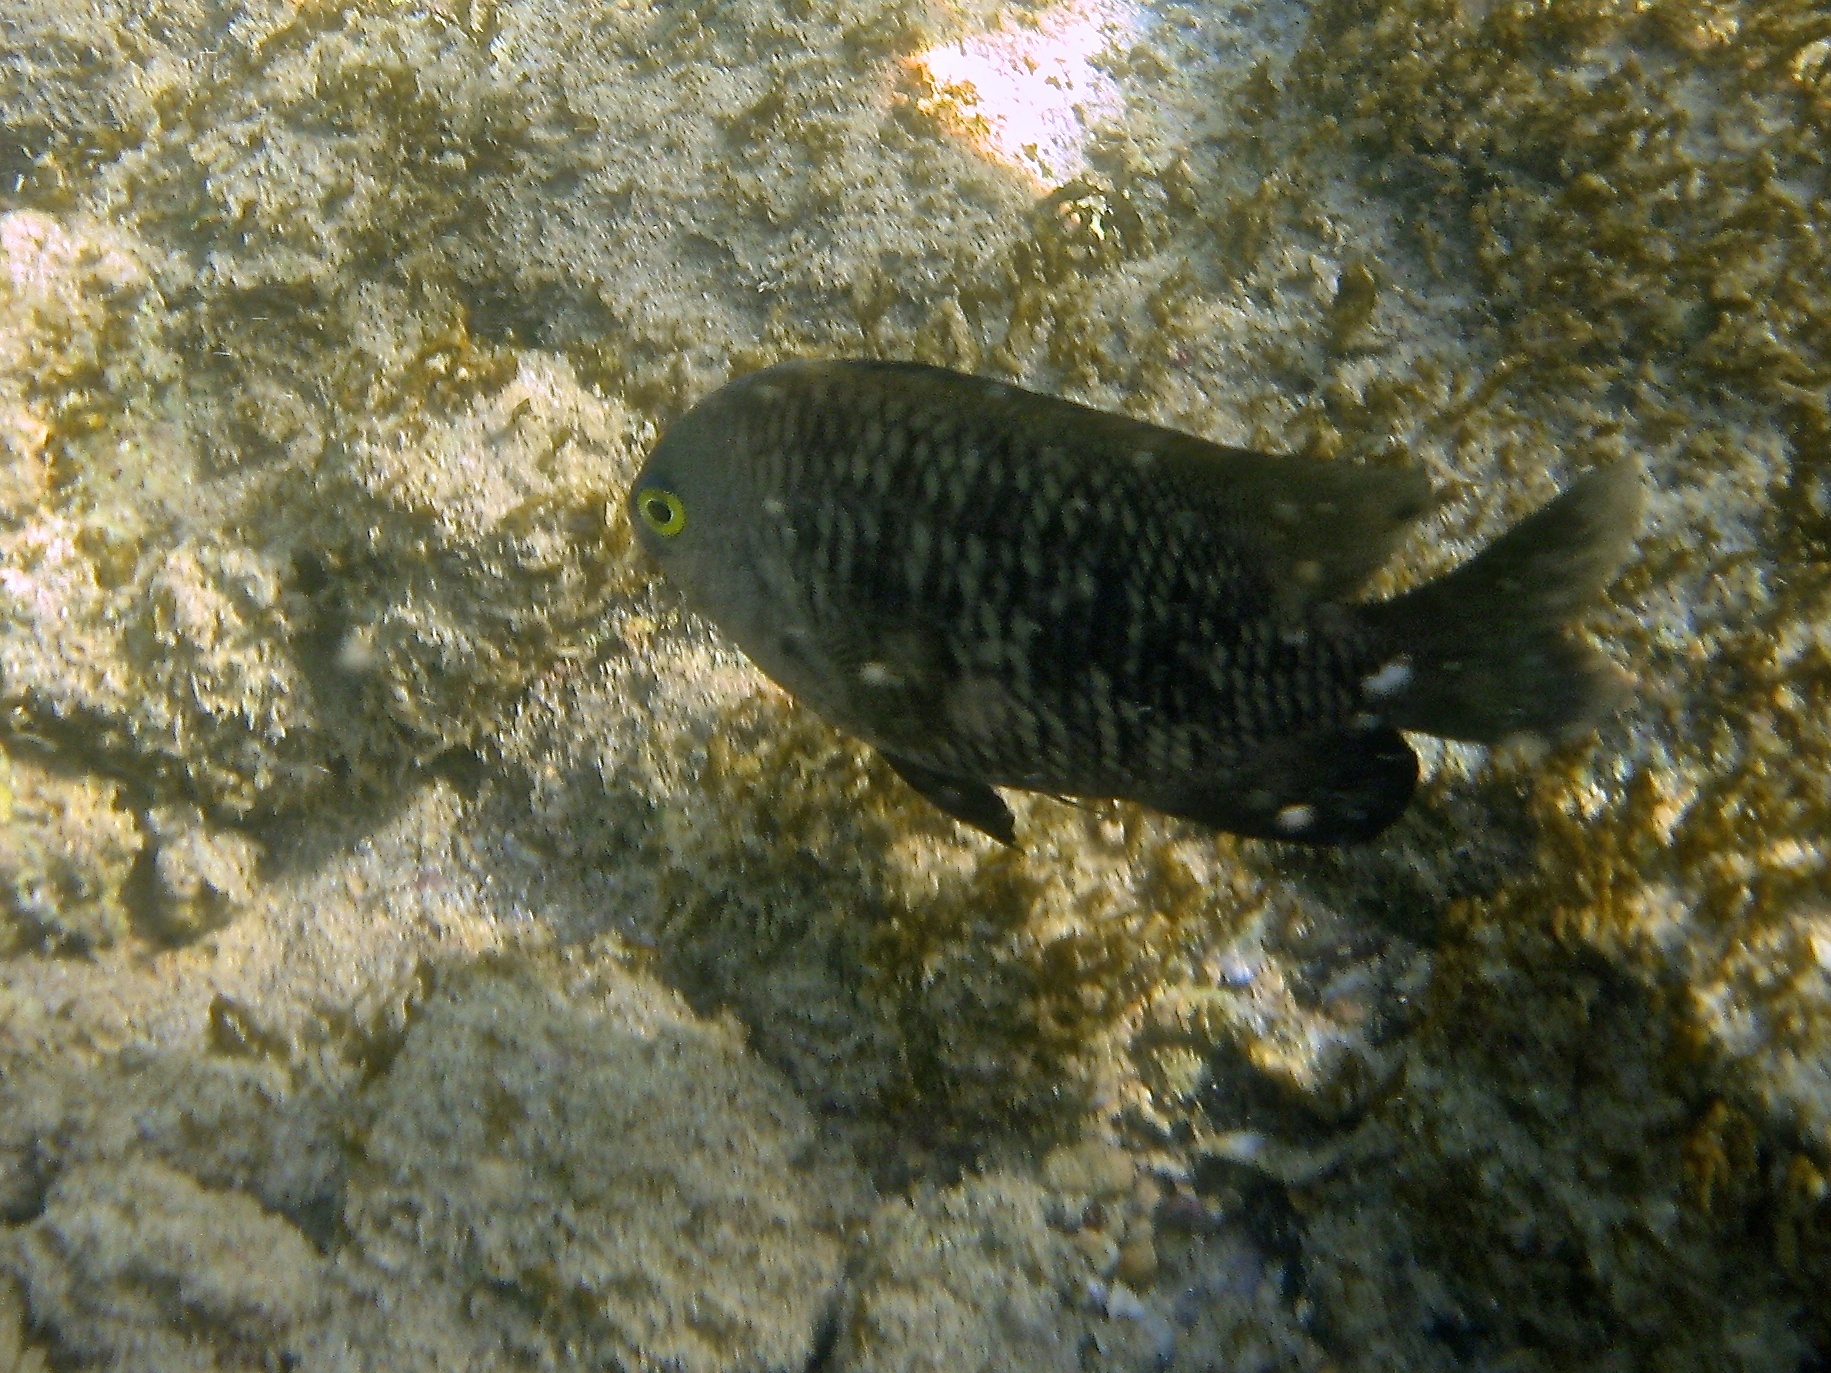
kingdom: Animalia
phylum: Chordata
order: Perciformes
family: Pomacentridae
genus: Stegastes
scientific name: Stegastes fasciolatus
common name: Pacific gregory
